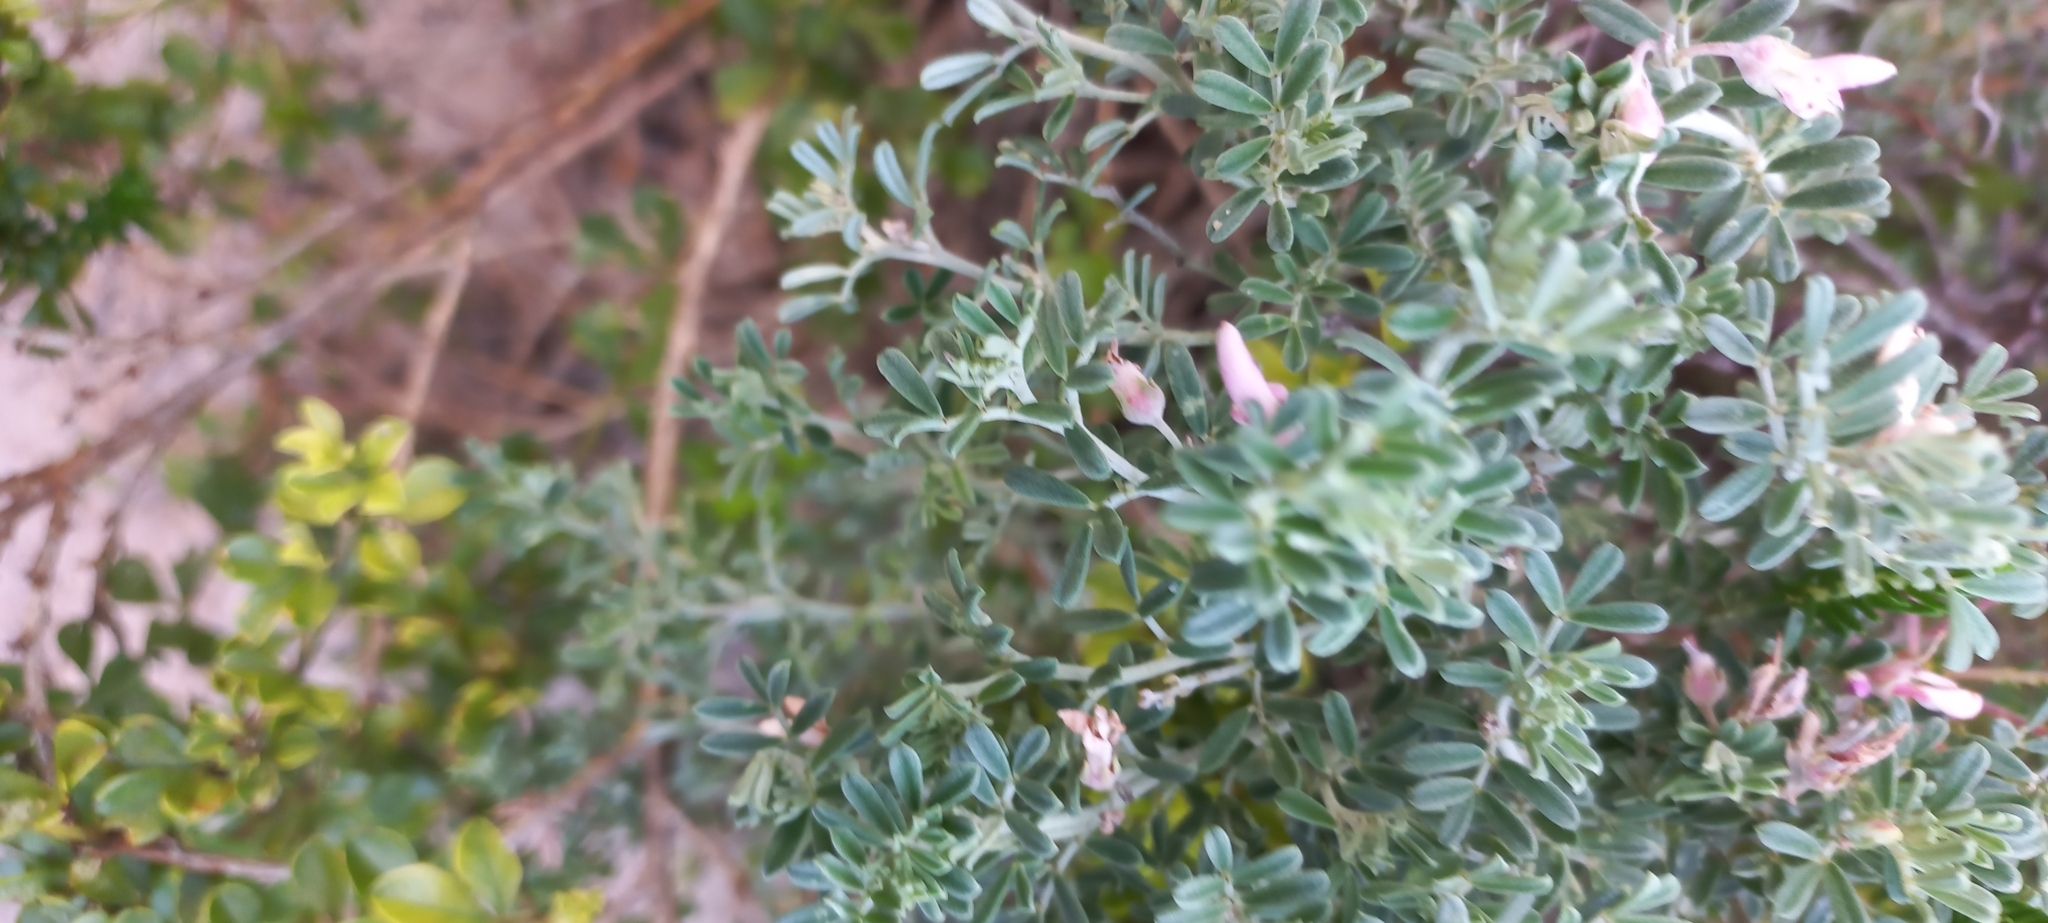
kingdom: Plantae
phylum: Tracheophyta
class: Magnoliopsida
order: Fabales
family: Fabaceae
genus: Indigofera
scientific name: Indigofera brachystachya
